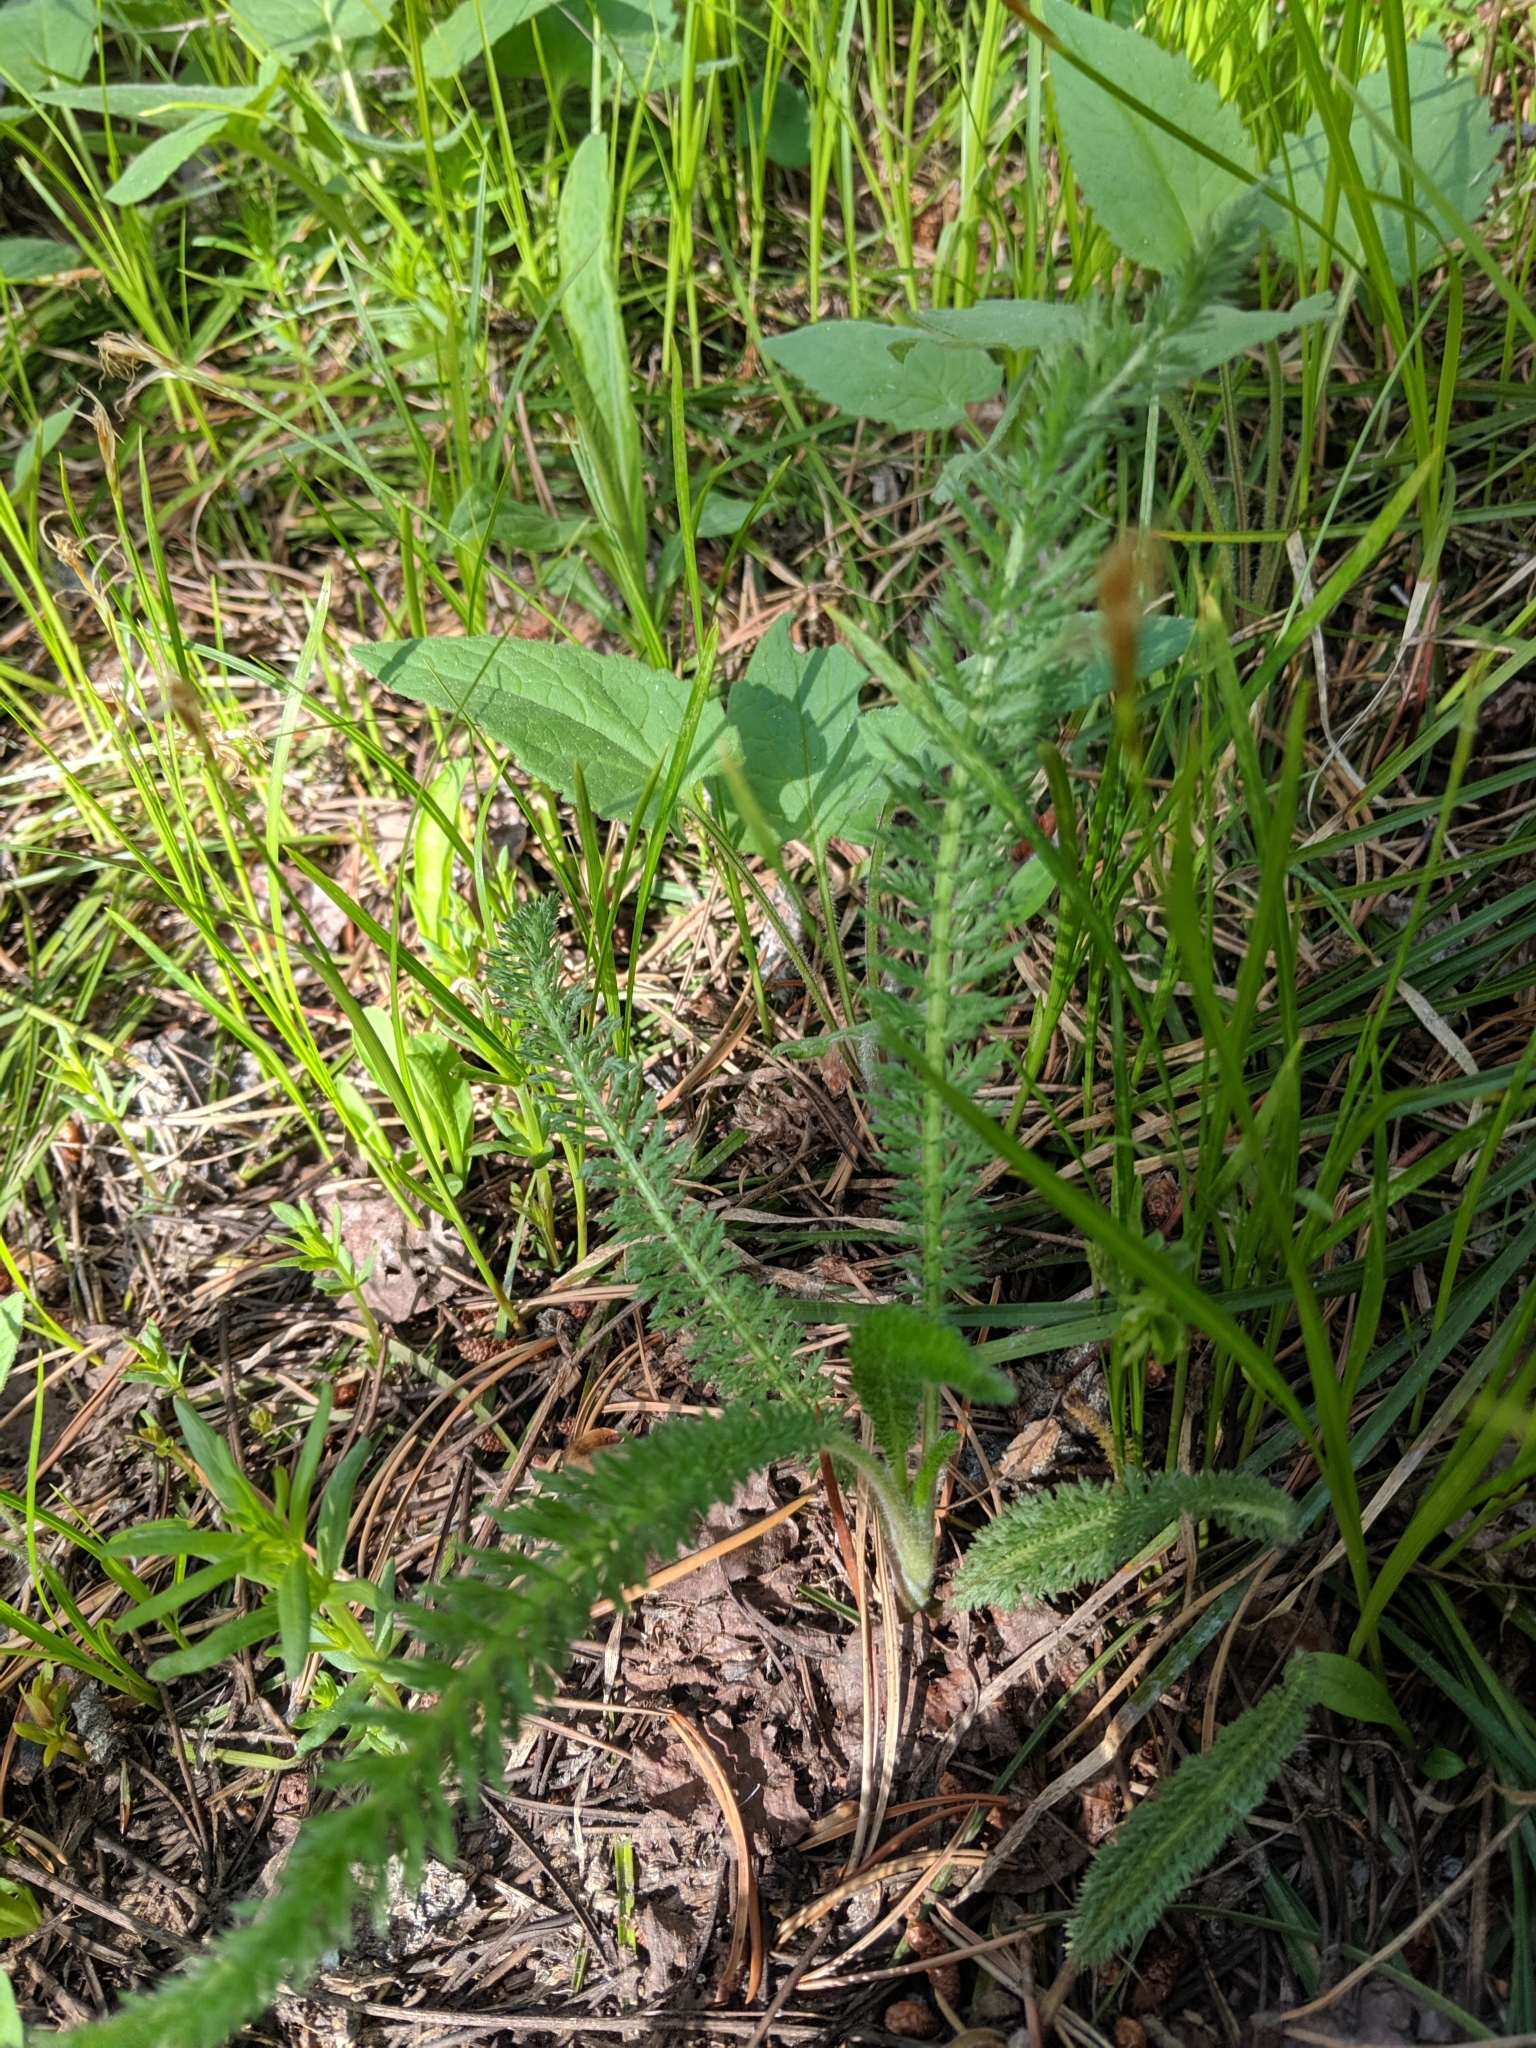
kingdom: Plantae
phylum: Tracheophyta
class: Magnoliopsida
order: Asterales
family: Asteraceae
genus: Achillea
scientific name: Achillea millefolium
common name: Yarrow
